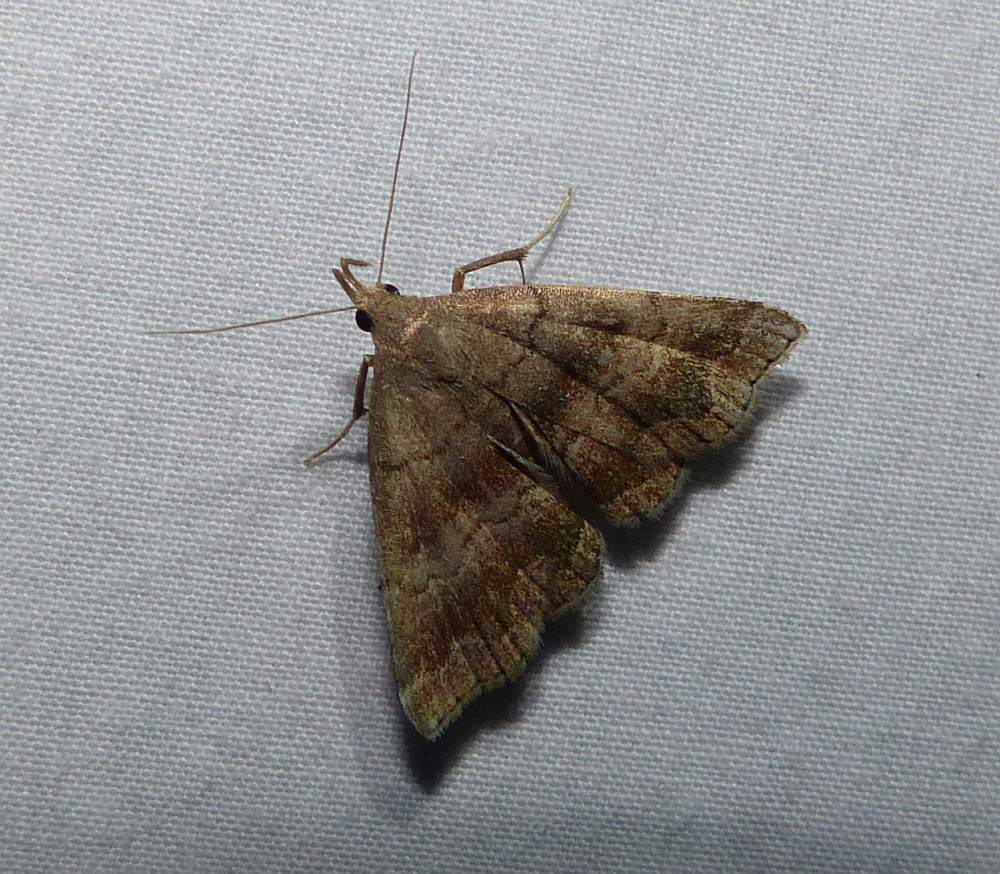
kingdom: Animalia
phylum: Arthropoda
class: Insecta
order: Lepidoptera
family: Erebidae
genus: Phalaenostola
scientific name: Phalaenostola larentioides
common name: Black-banded owlet
